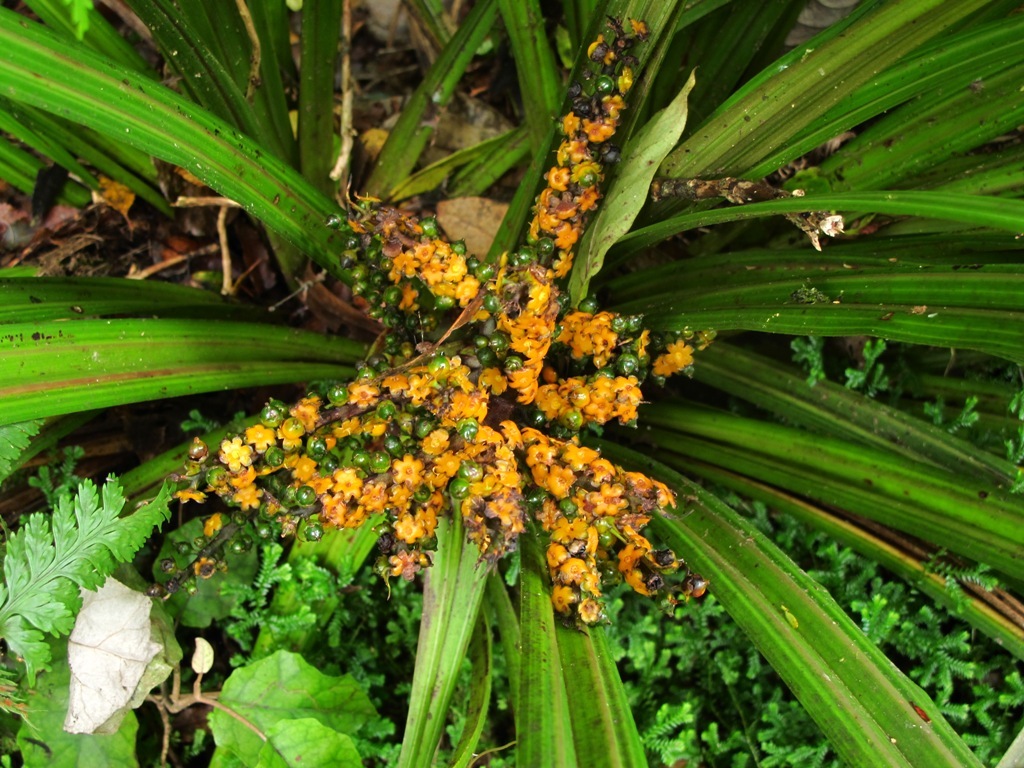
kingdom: Plantae
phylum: Tracheophyta
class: Liliopsida
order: Asparagales
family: Asteliaceae
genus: Astelia
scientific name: Astelia fragrans
